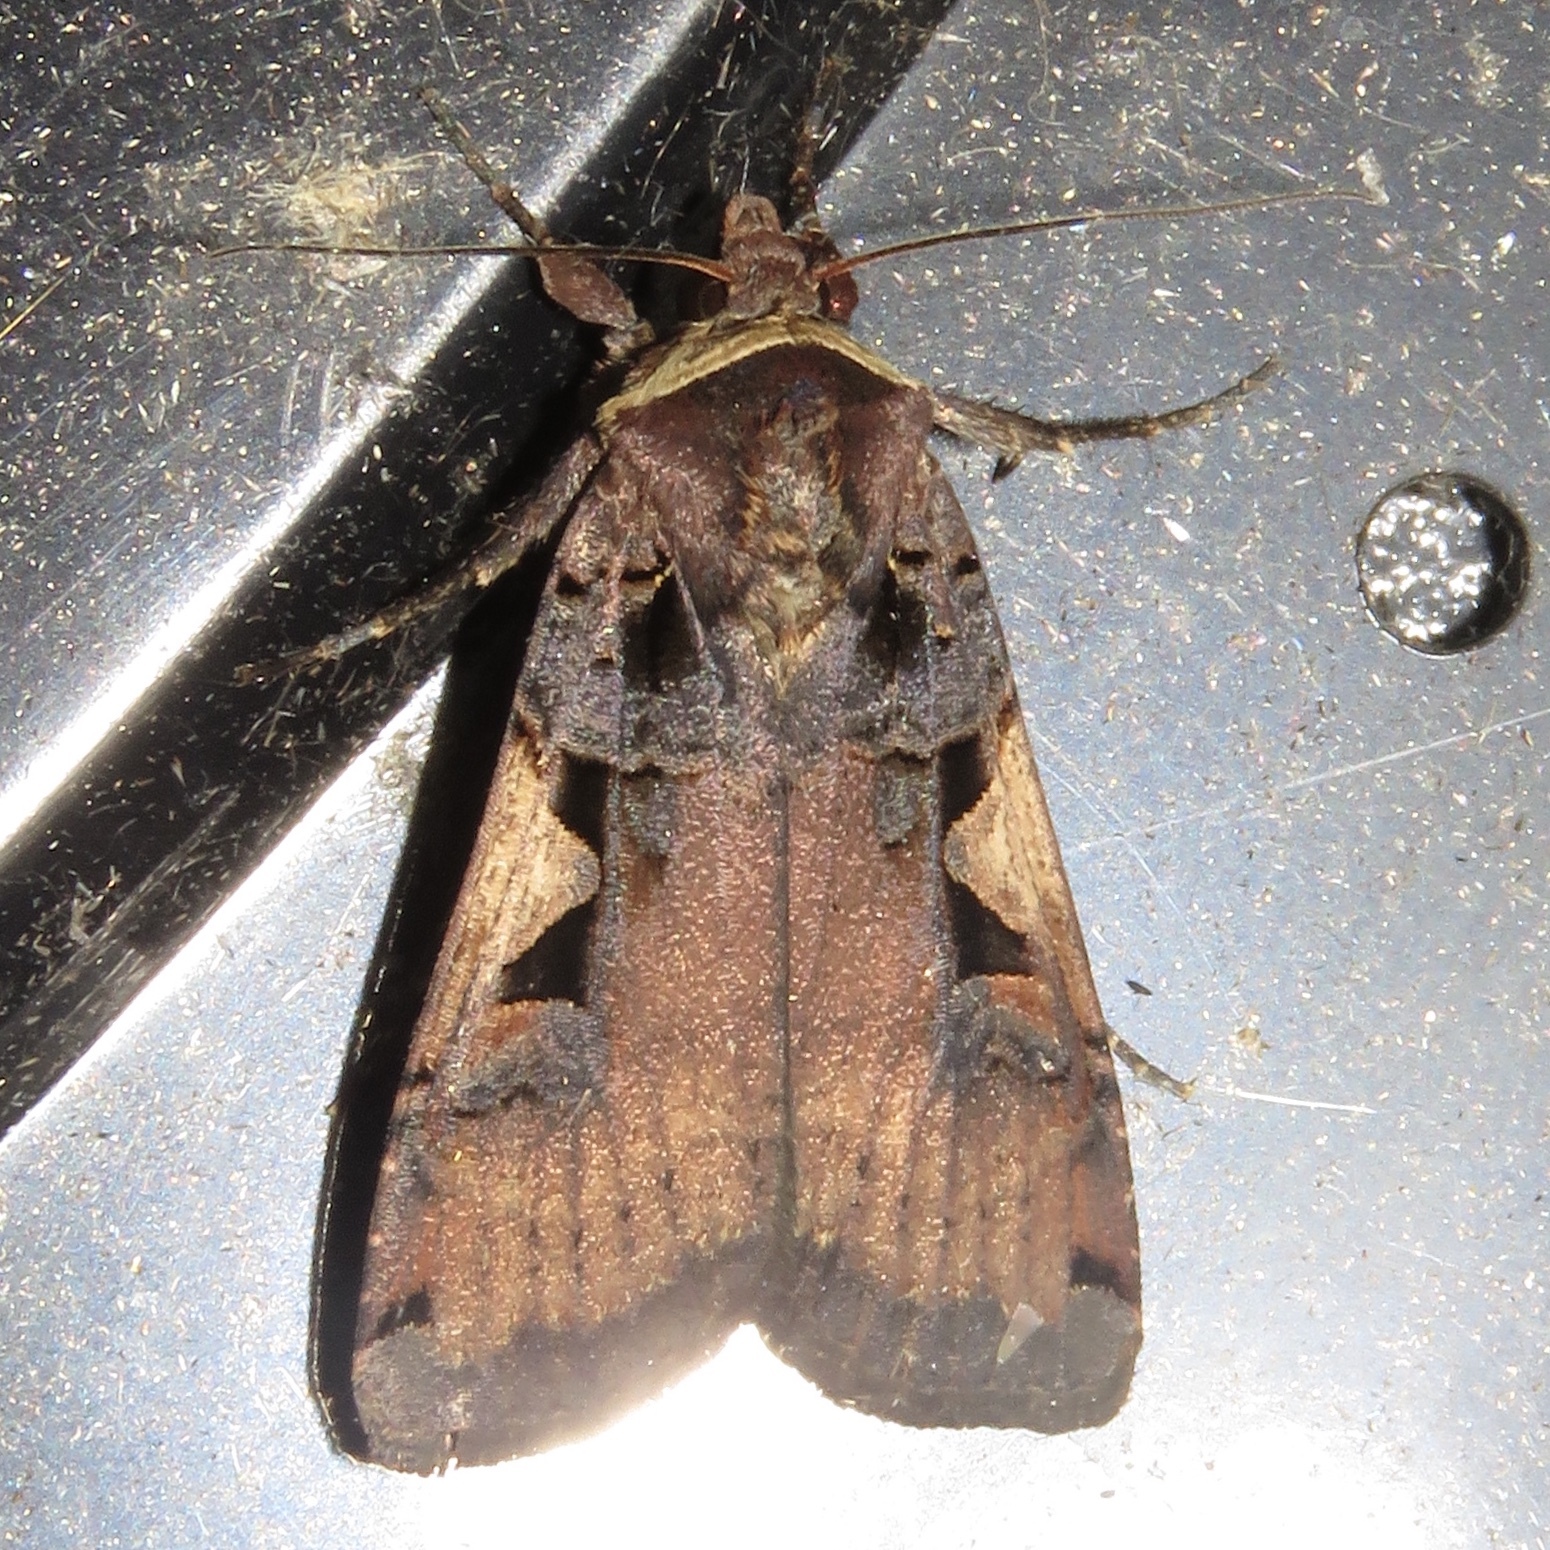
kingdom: Animalia
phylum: Arthropoda
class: Insecta
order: Lepidoptera
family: Noctuidae
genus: Xestia
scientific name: Xestia
